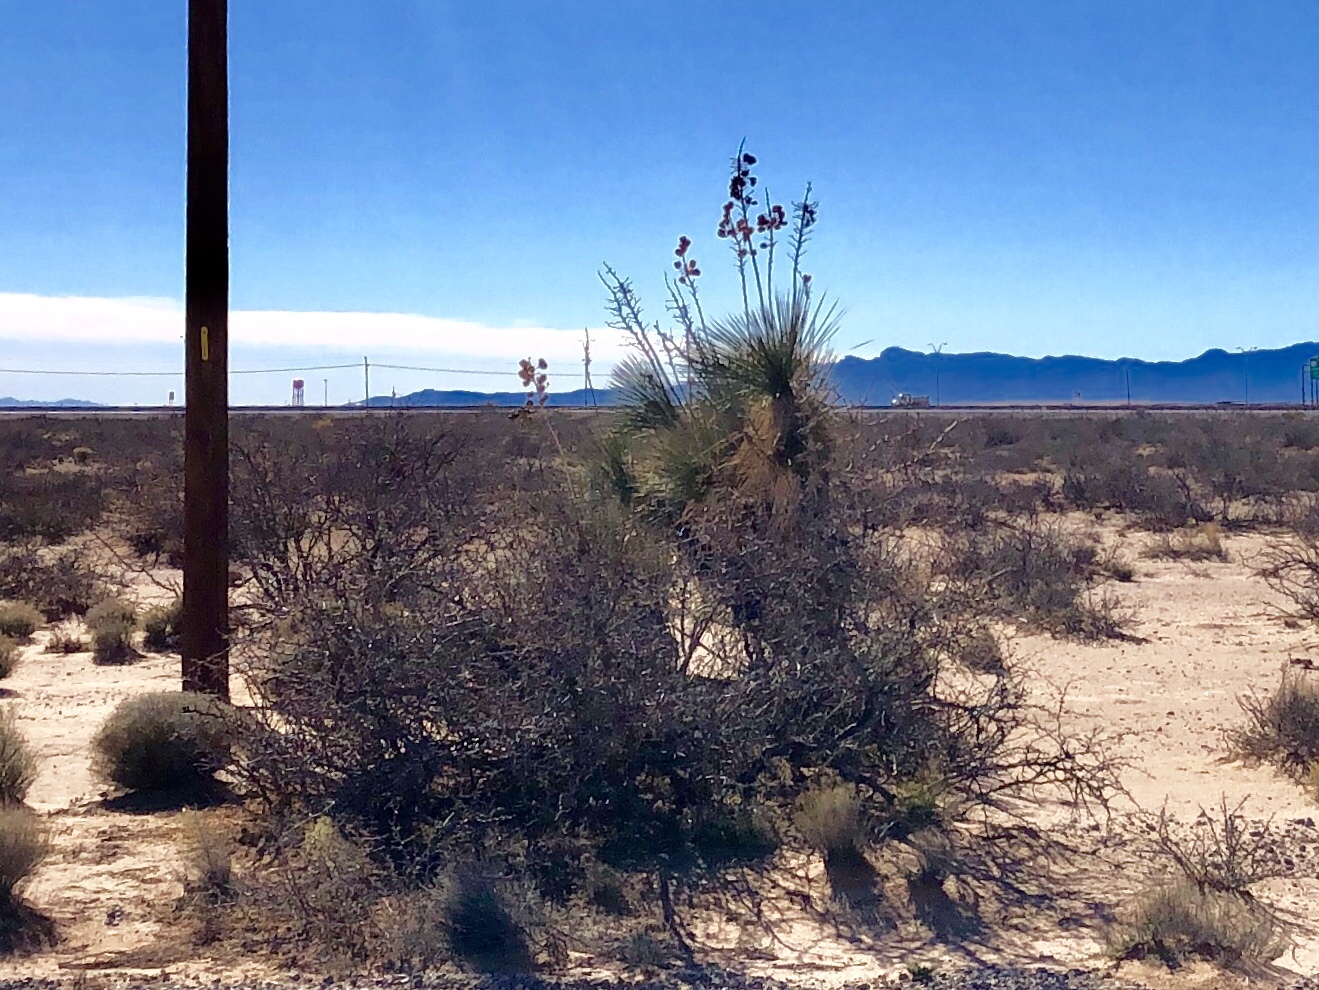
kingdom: Plantae
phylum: Tracheophyta
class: Liliopsida
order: Asparagales
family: Asparagaceae
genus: Yucca
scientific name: Yucca elata
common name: Palmella
